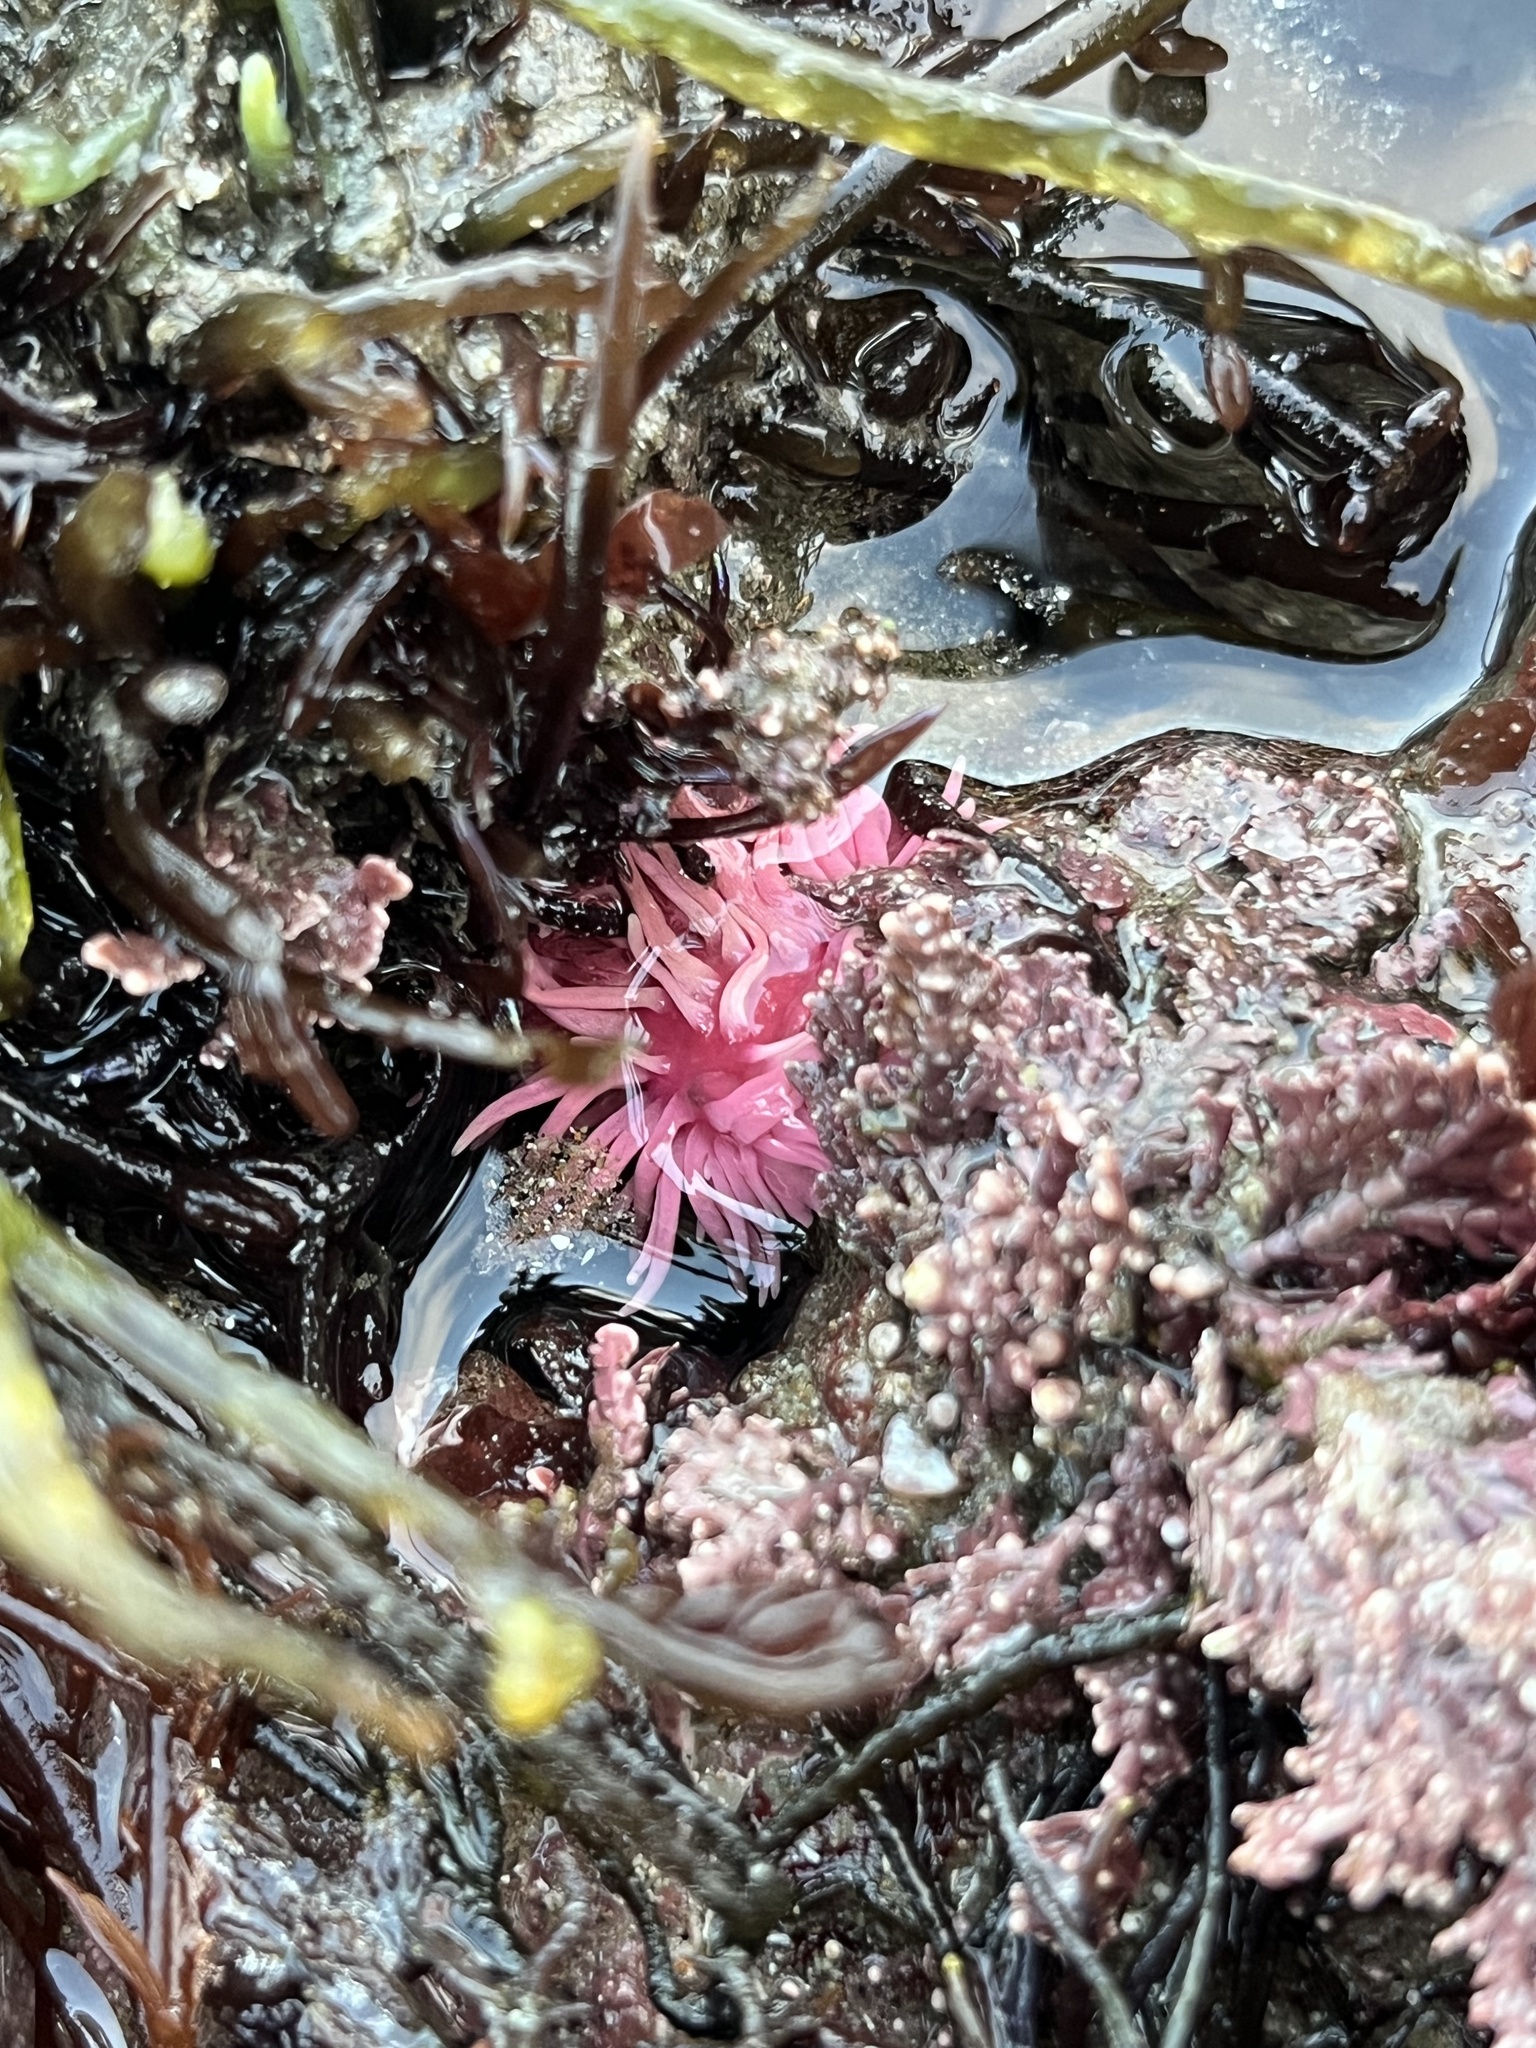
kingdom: Animalia
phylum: Mollusca
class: Gastropoda
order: Nudibranchia
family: Goniodorididae
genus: Okenia
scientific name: Okenia
